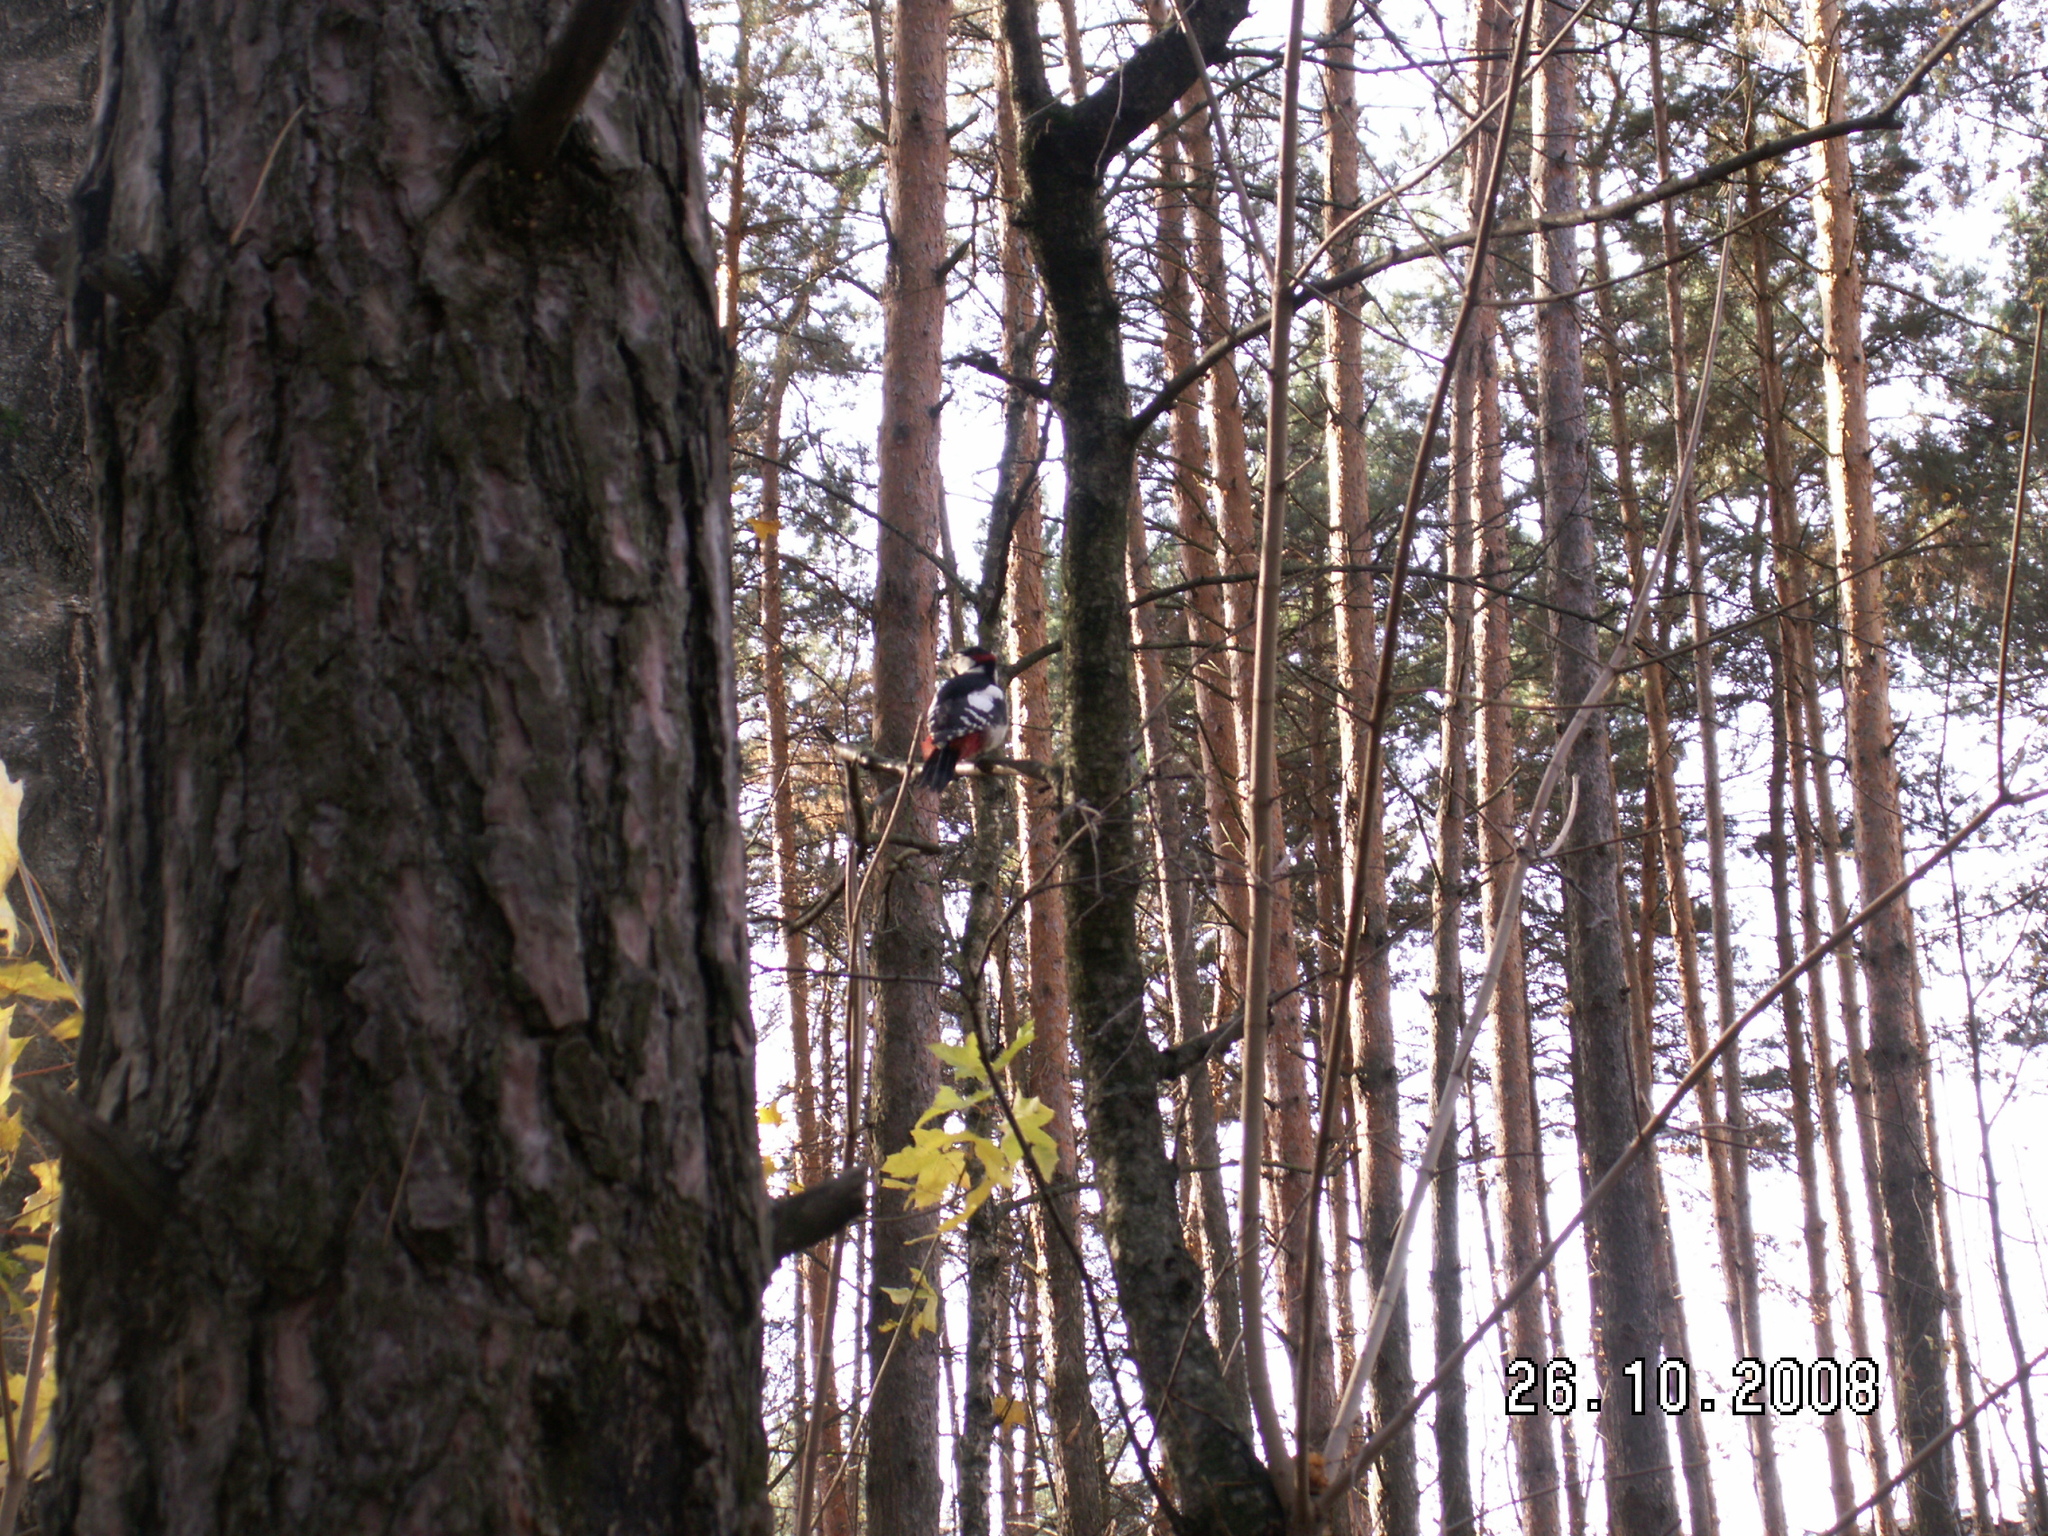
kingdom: Animalia
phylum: Chordata
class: Aves
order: Piciformes
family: Picidae
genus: Dendrocopos
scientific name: Dendrocopos major
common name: Great spotted woodpecker
